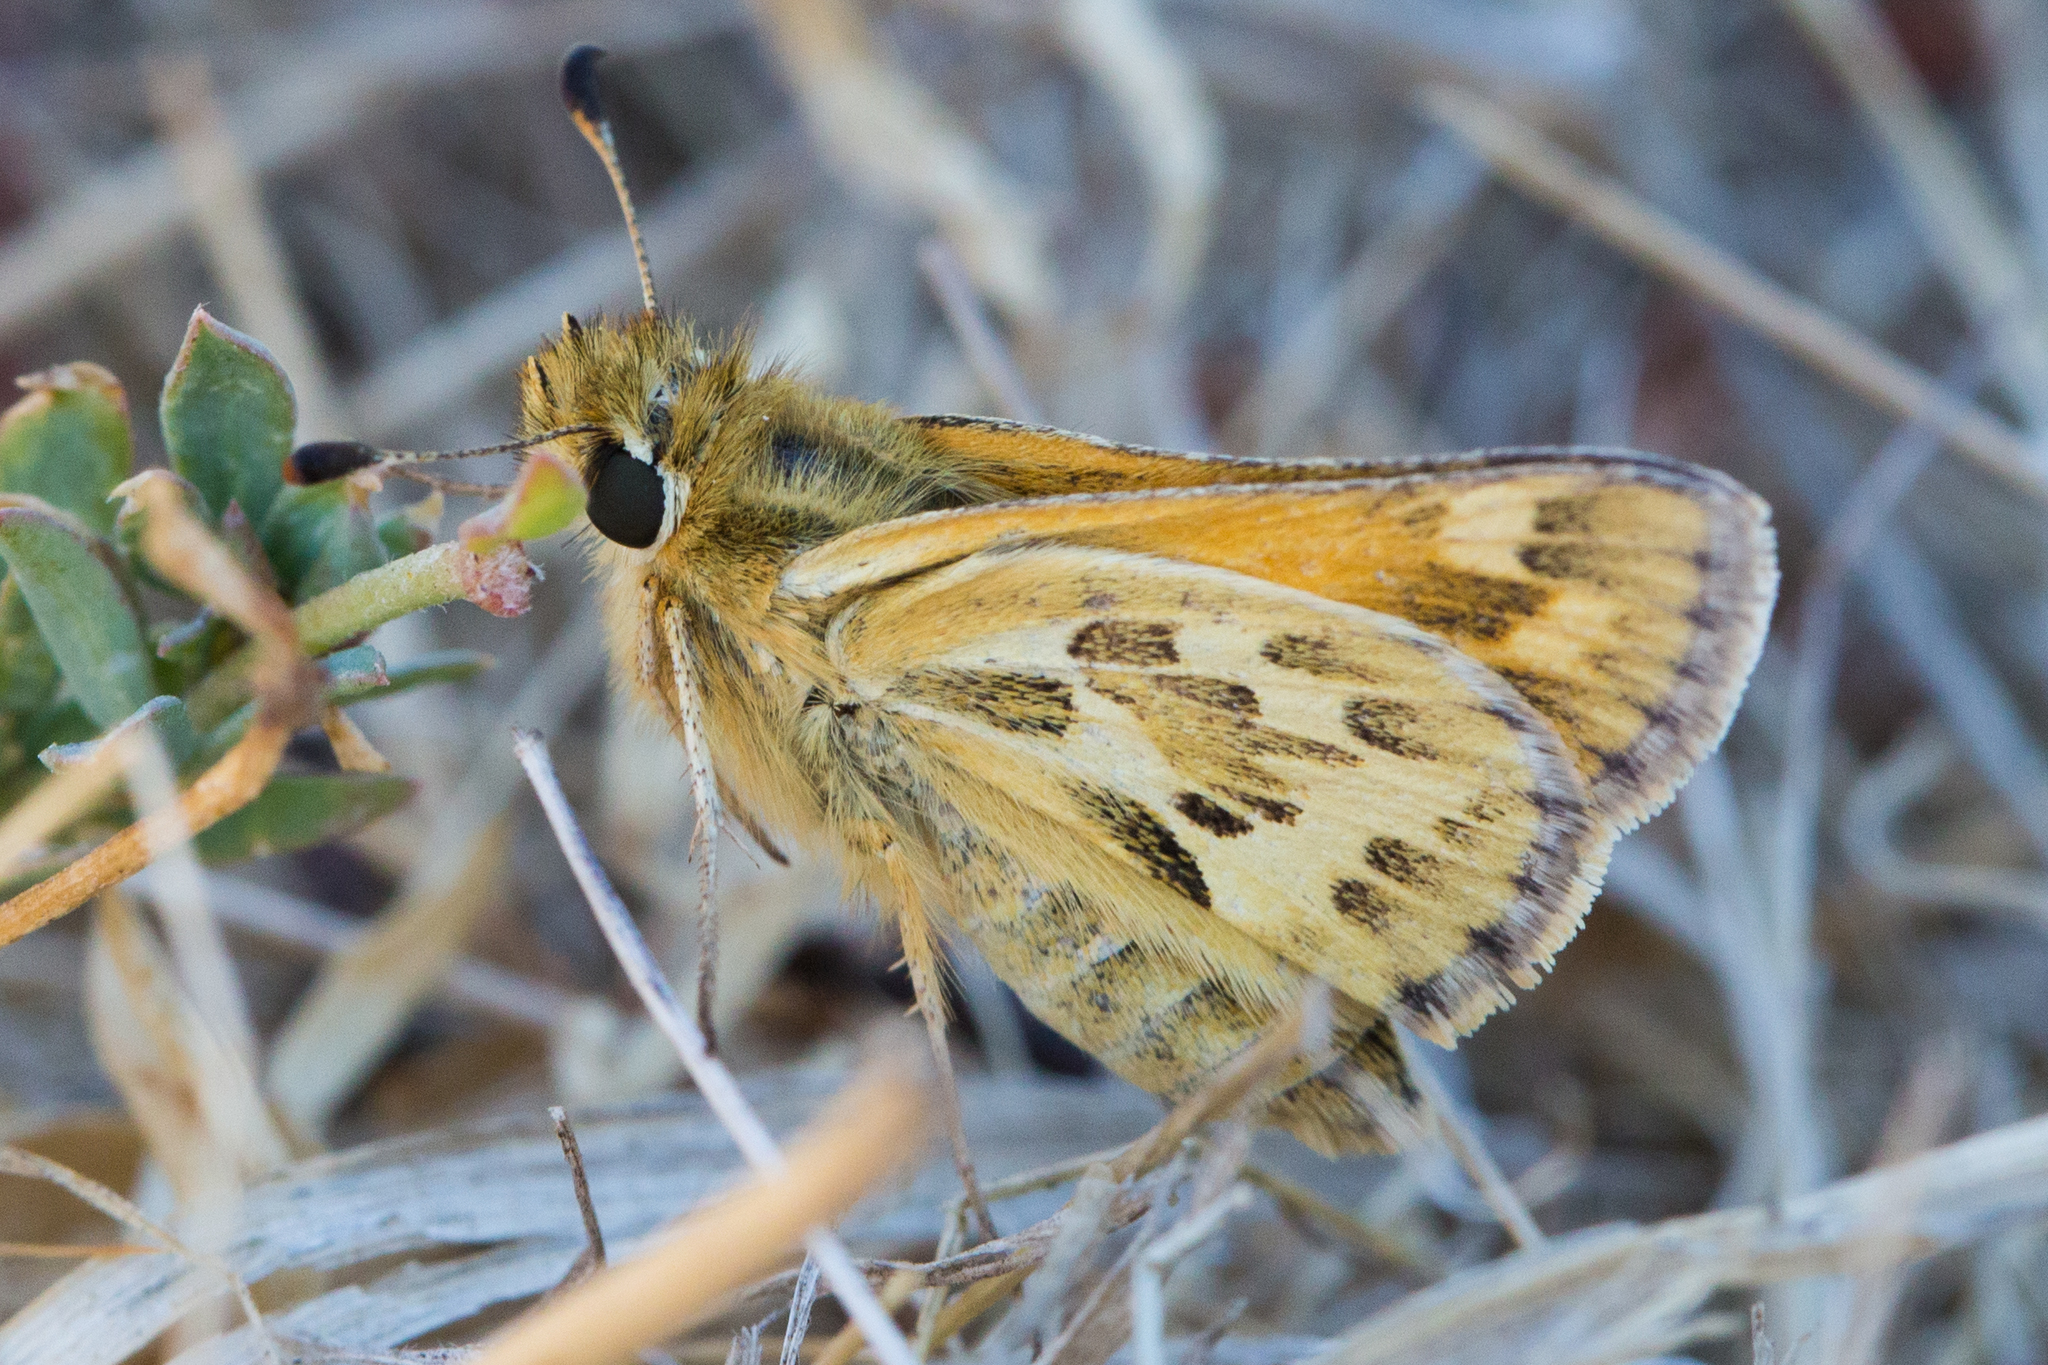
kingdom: Animalia
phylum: Arthropoda
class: Insecta
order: Lepidoptera
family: Hesperiidae
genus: Polites
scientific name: Polites sabuleti
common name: Sandhill skipper
